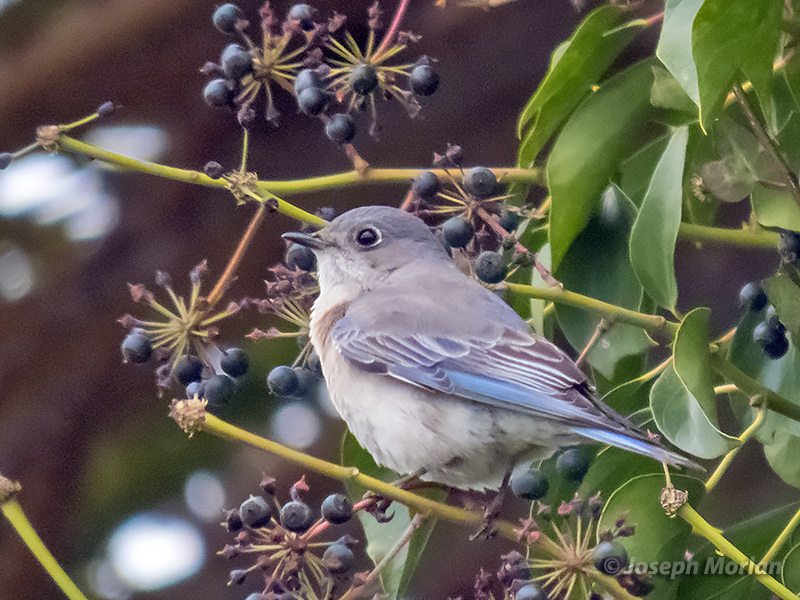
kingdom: Animalia
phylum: Chordata
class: Aves
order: Passeriformes
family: Turdidae
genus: Sialia
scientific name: Sialia mexicana
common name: Western bluebird
